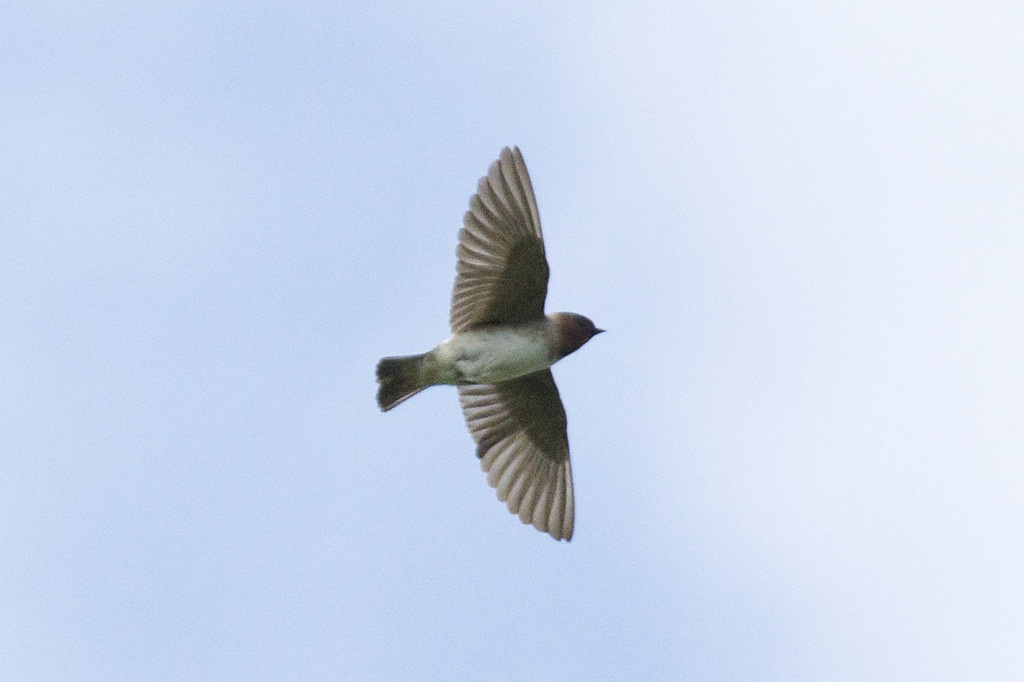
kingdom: Animalia
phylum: Chordata
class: Aves
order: Passeriformes
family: Hirundinidae
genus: Petrochelidon
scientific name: Petrochelidon pyrrhonota
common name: American cliff swallow
